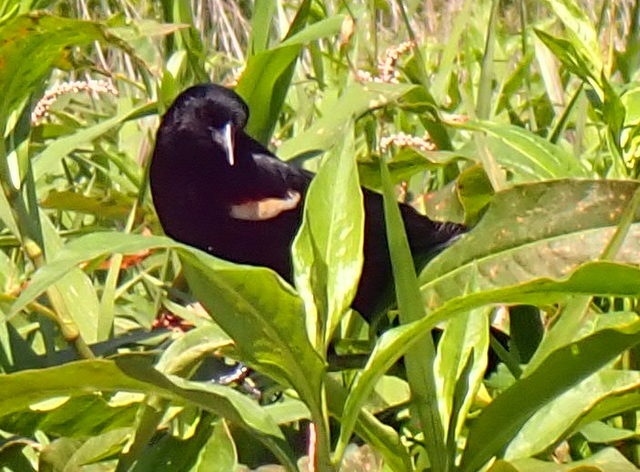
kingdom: Animalia
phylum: Chordata
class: Aves
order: Passeriformes
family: Icteridae
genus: Agelaius
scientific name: Agelaius phoeniceus
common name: Red-winged blackbird
